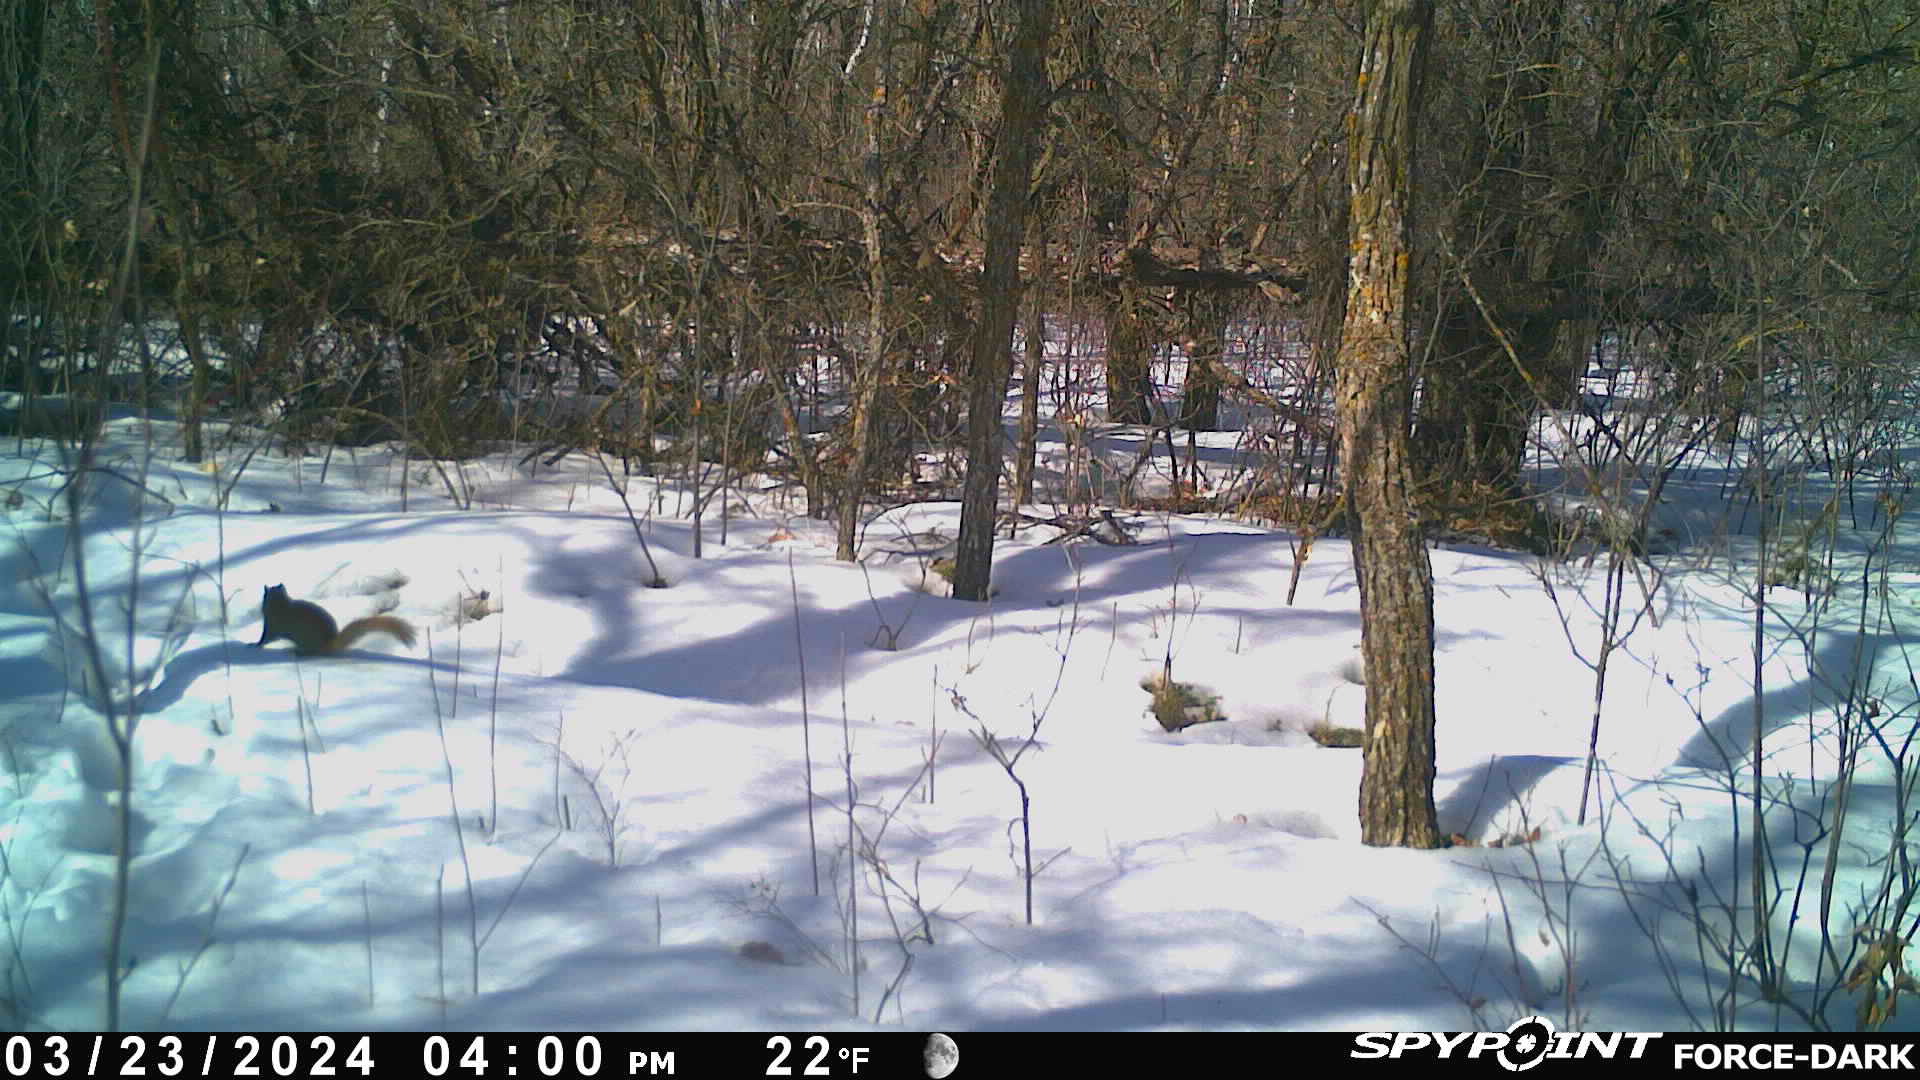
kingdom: Animalia
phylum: Chordata
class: Mammalia
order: Rodentia
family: Sciuridae
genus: Tamiasciurus
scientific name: Tamiasciurus hudsonicus
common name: Red squirrel
